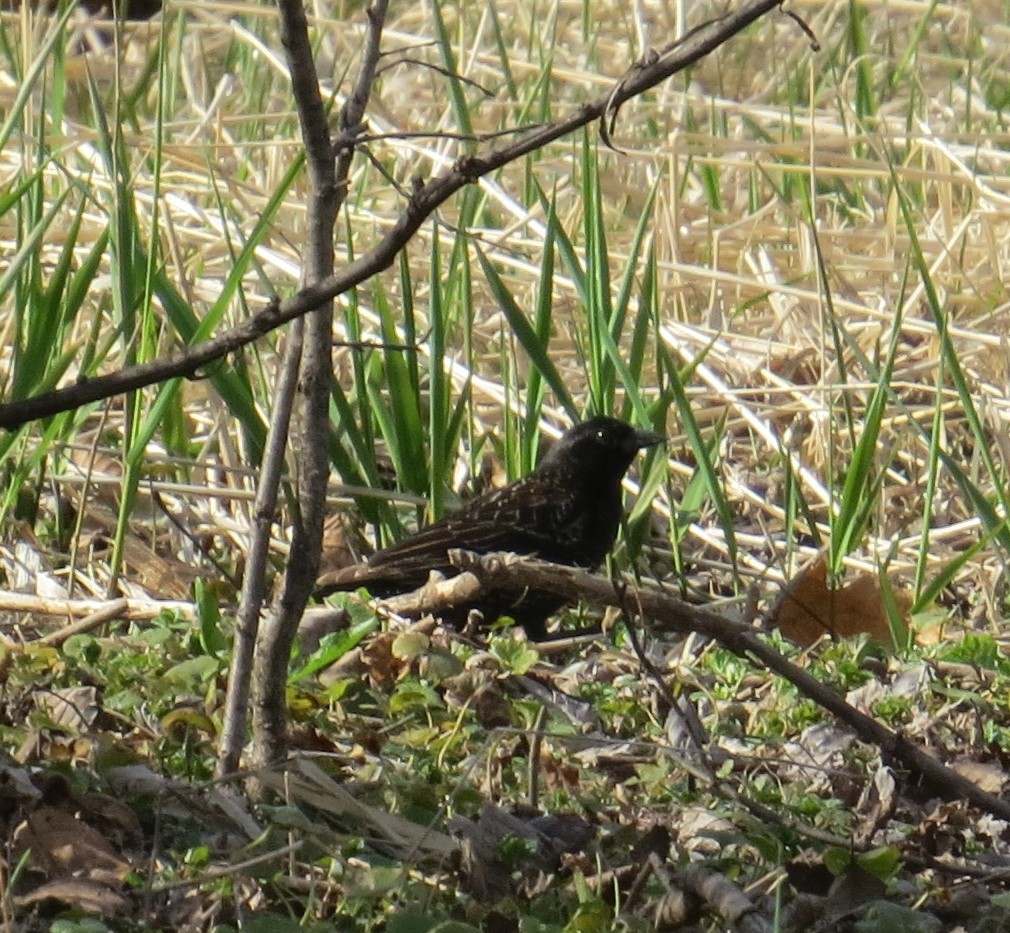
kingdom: Animalia
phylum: Chordata
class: Aves
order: Passeriformes
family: Icteridae
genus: Agelaius
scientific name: Agelaius phoeniceus
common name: Red-winged blackbird
